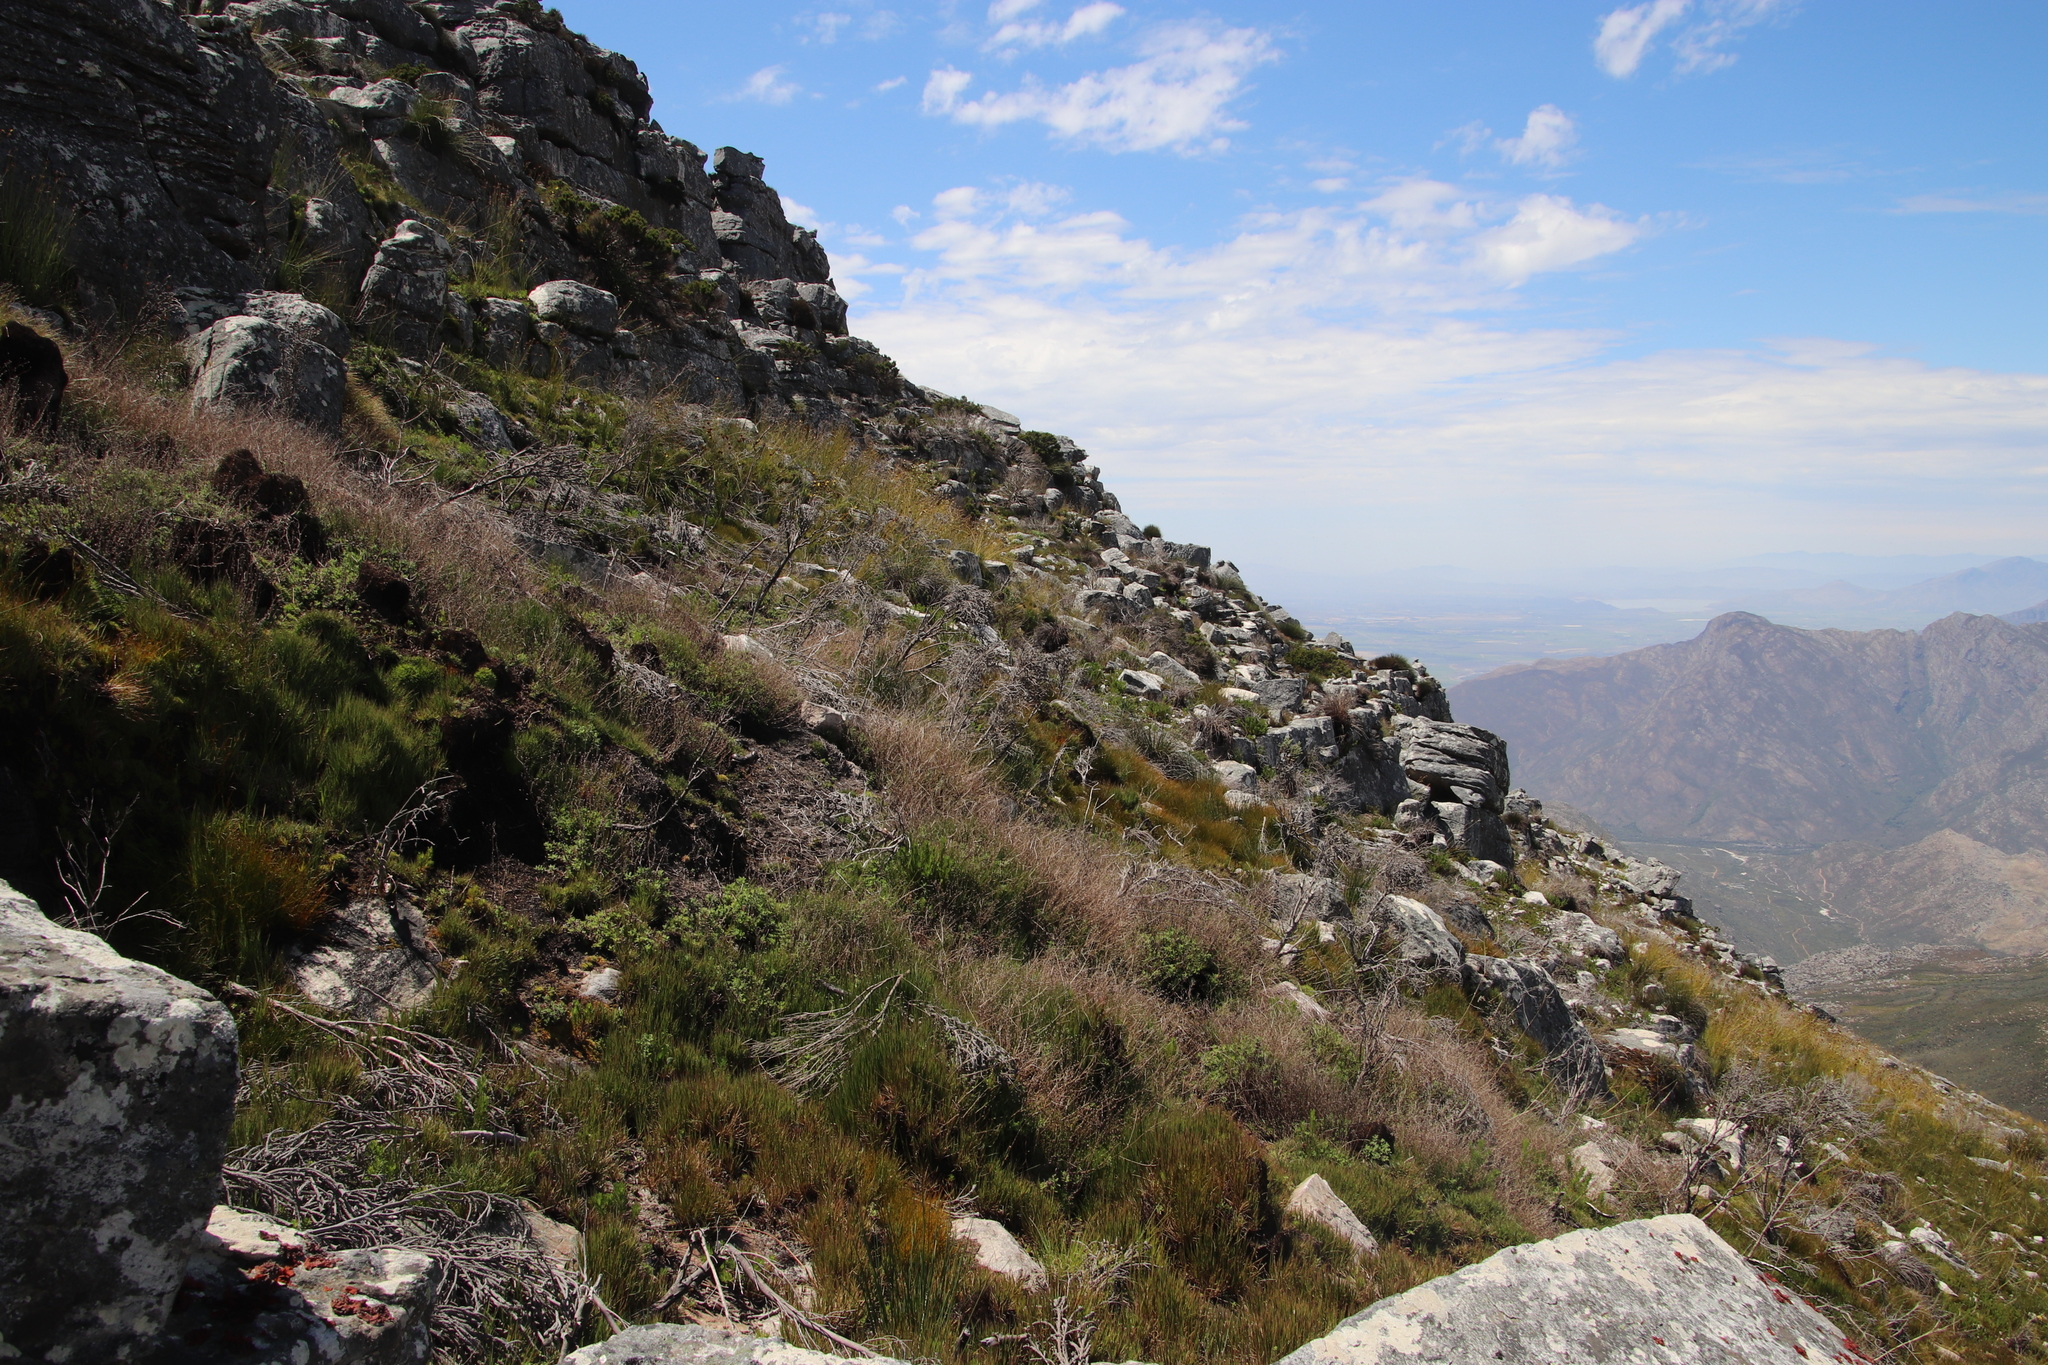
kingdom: Plantae
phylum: Tracheophyta
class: Magnoliopsida
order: Bruniales
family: Bruniaceae
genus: Brunia
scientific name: Brunia sphaerocephala
